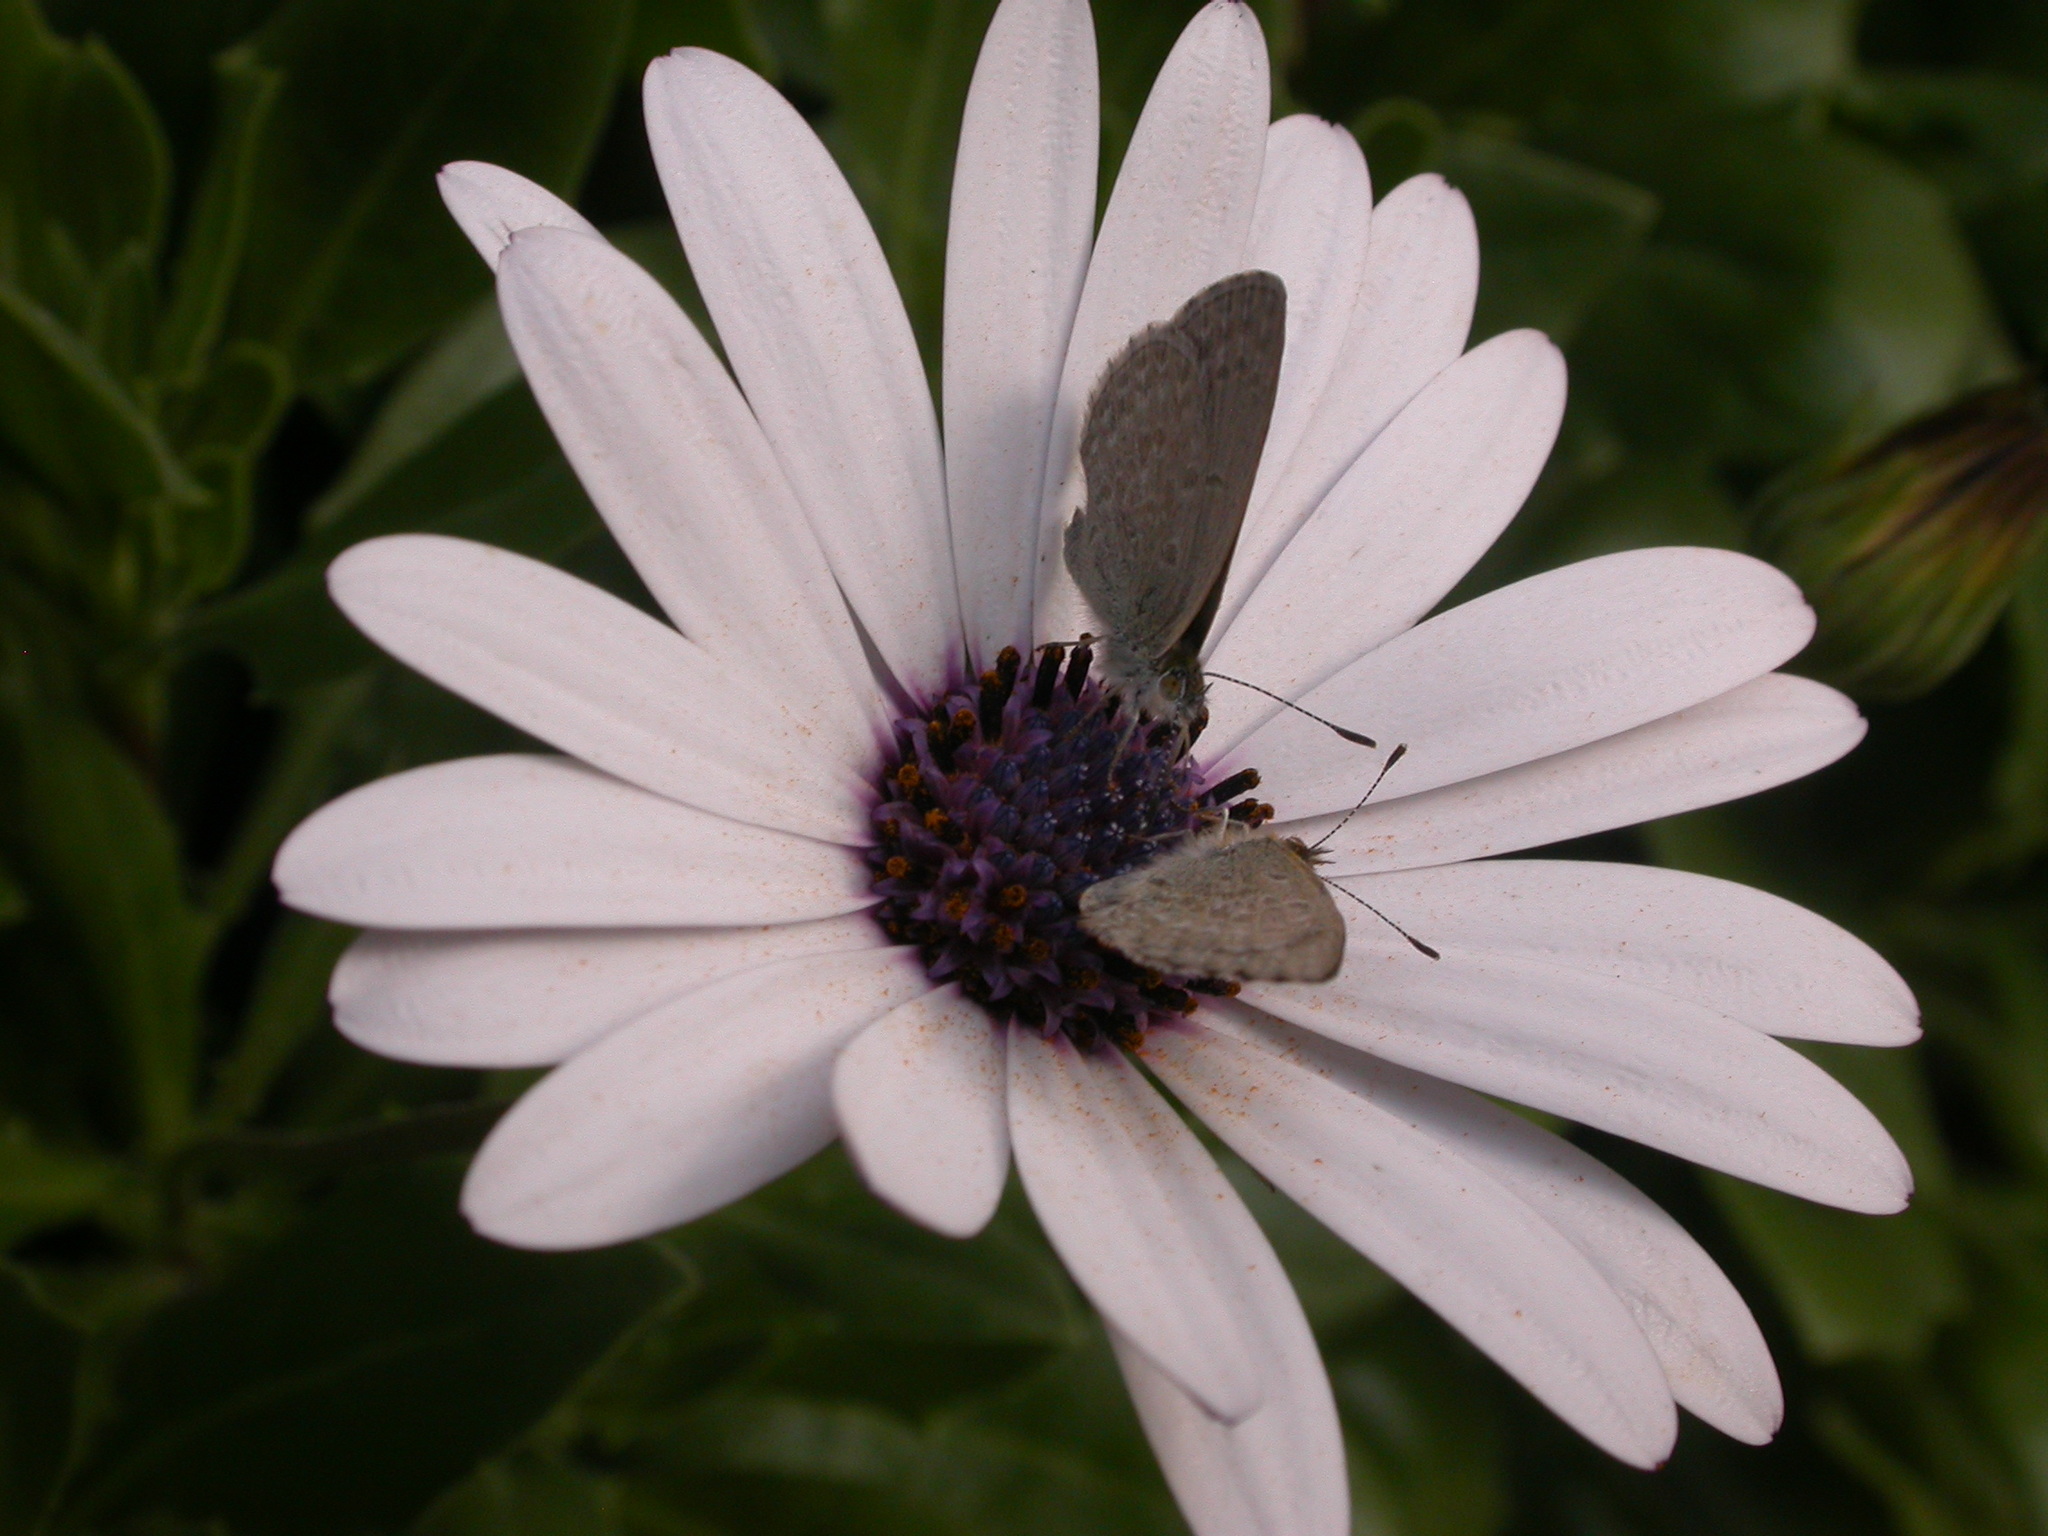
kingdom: Animalia
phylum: Arthropoda
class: Insecta
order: Lepidoptera
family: Lycaenidae
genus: Zizina
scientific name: Zizina labradus
